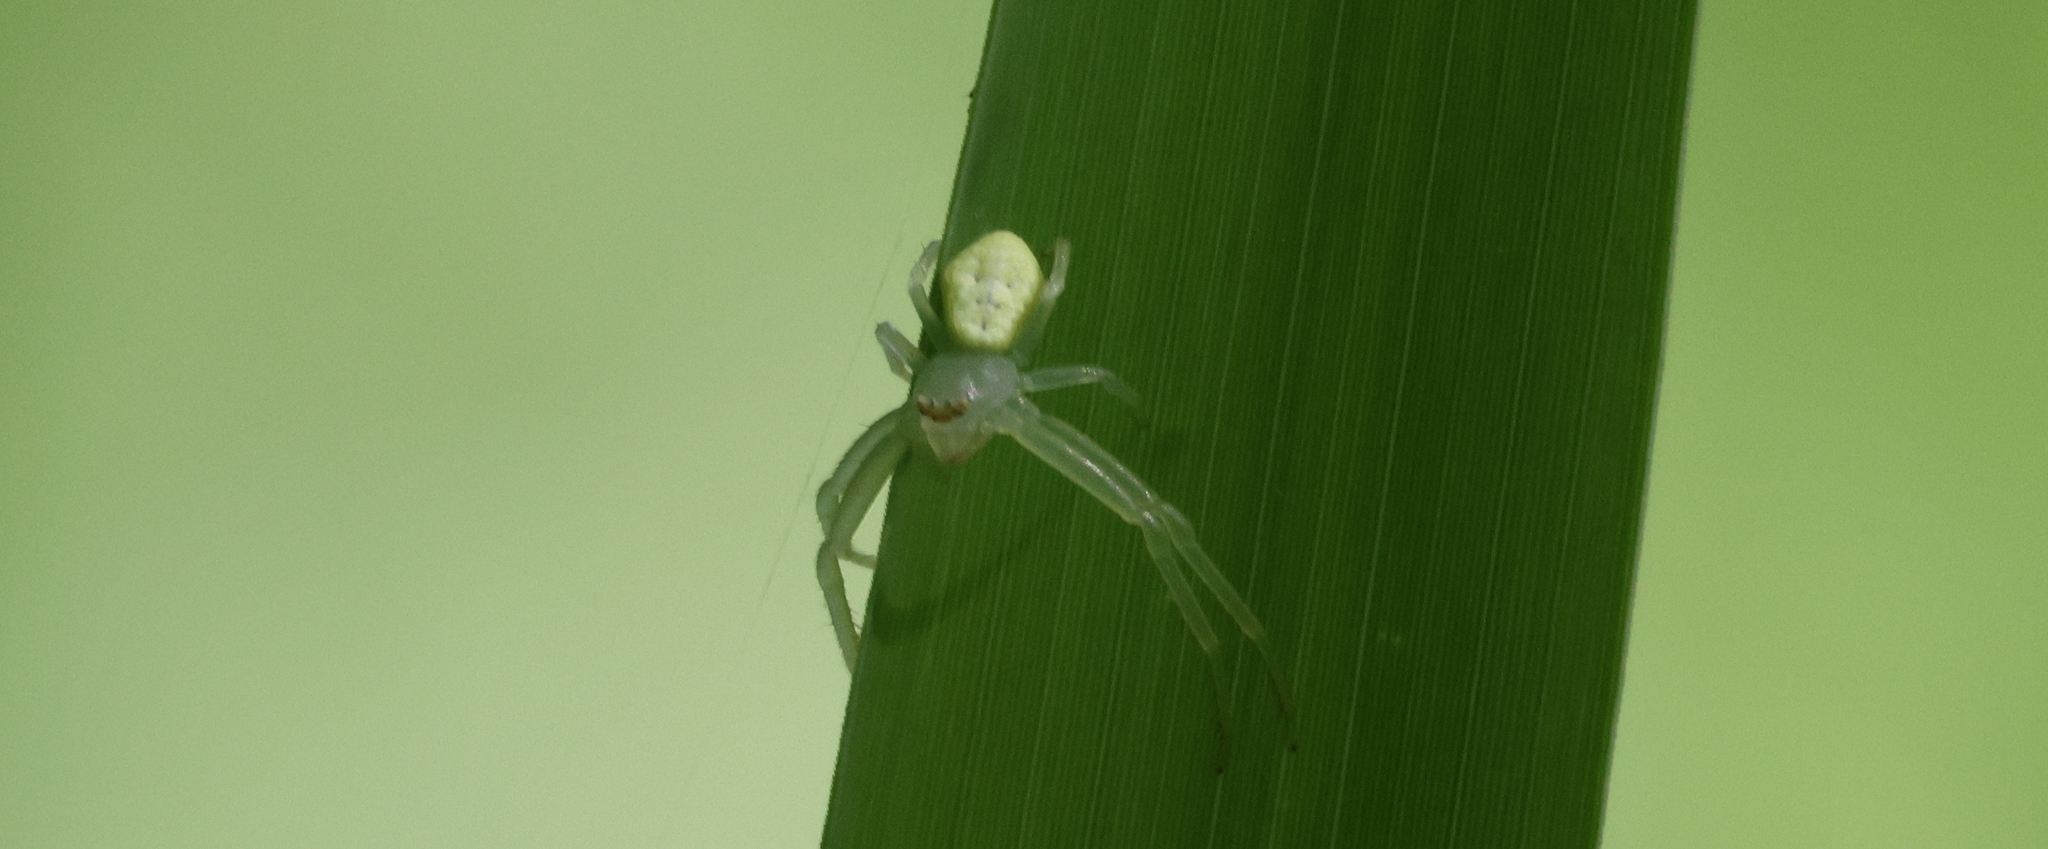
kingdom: Animalia
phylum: Arthropoda
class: Arachnida
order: Araneae
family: Thomisidae
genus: Misumessus
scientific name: Misumessus oblongus
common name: American green crab spider
